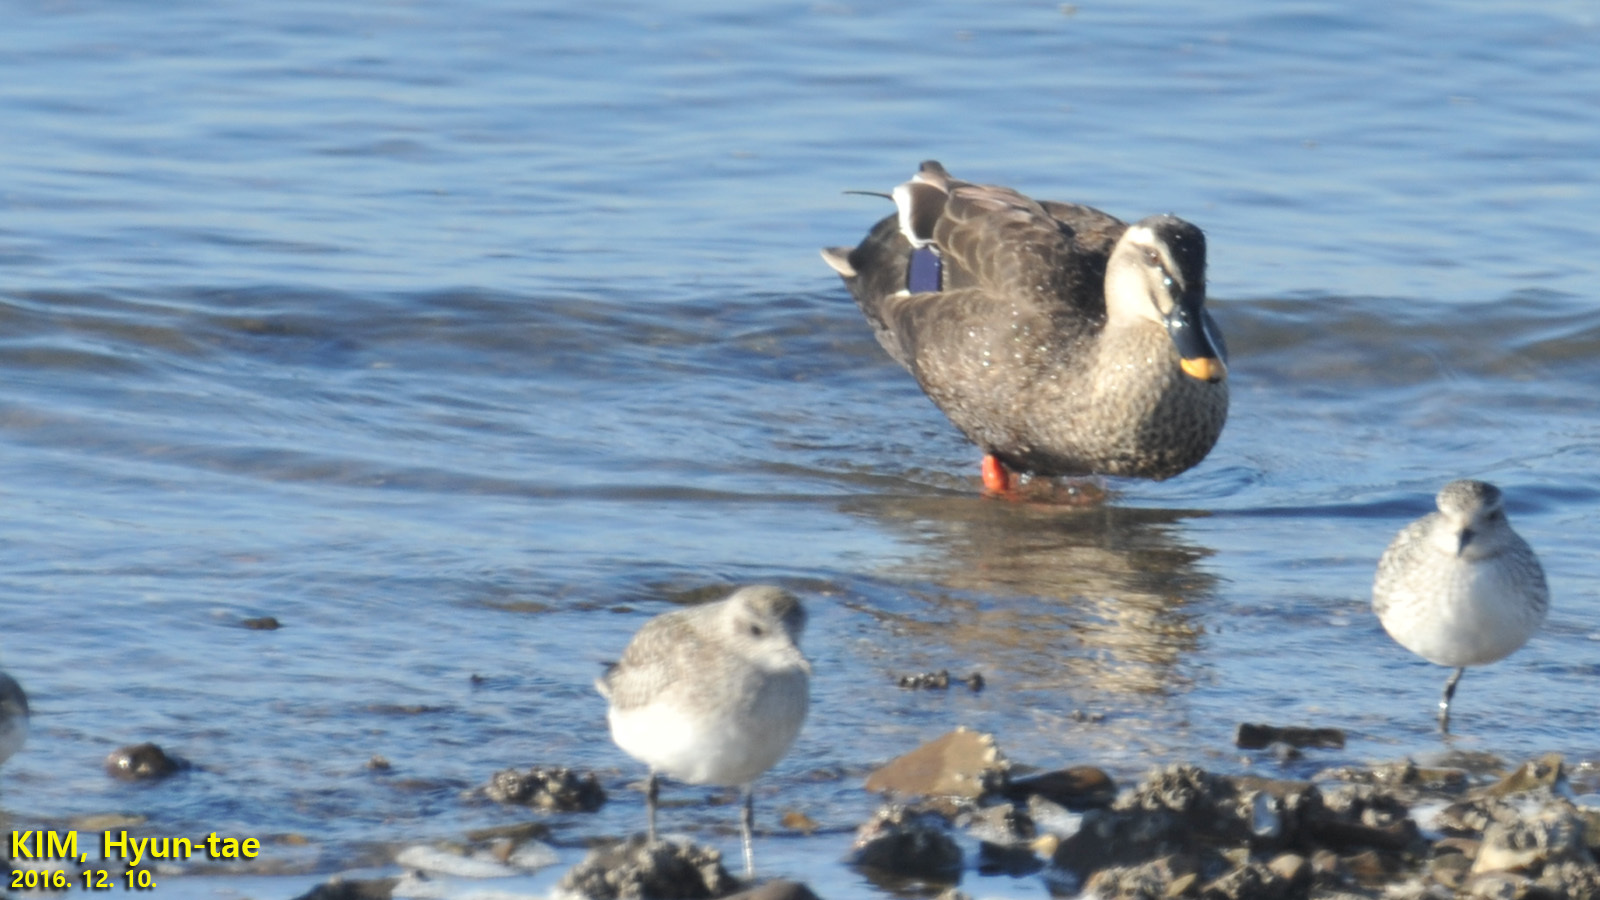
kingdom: Animalia
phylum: Chordata
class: Aves
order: Anseriformes
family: Anatidae
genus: Anas
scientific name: Anas zonorhyncha
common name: Eastern spot-billed duck
